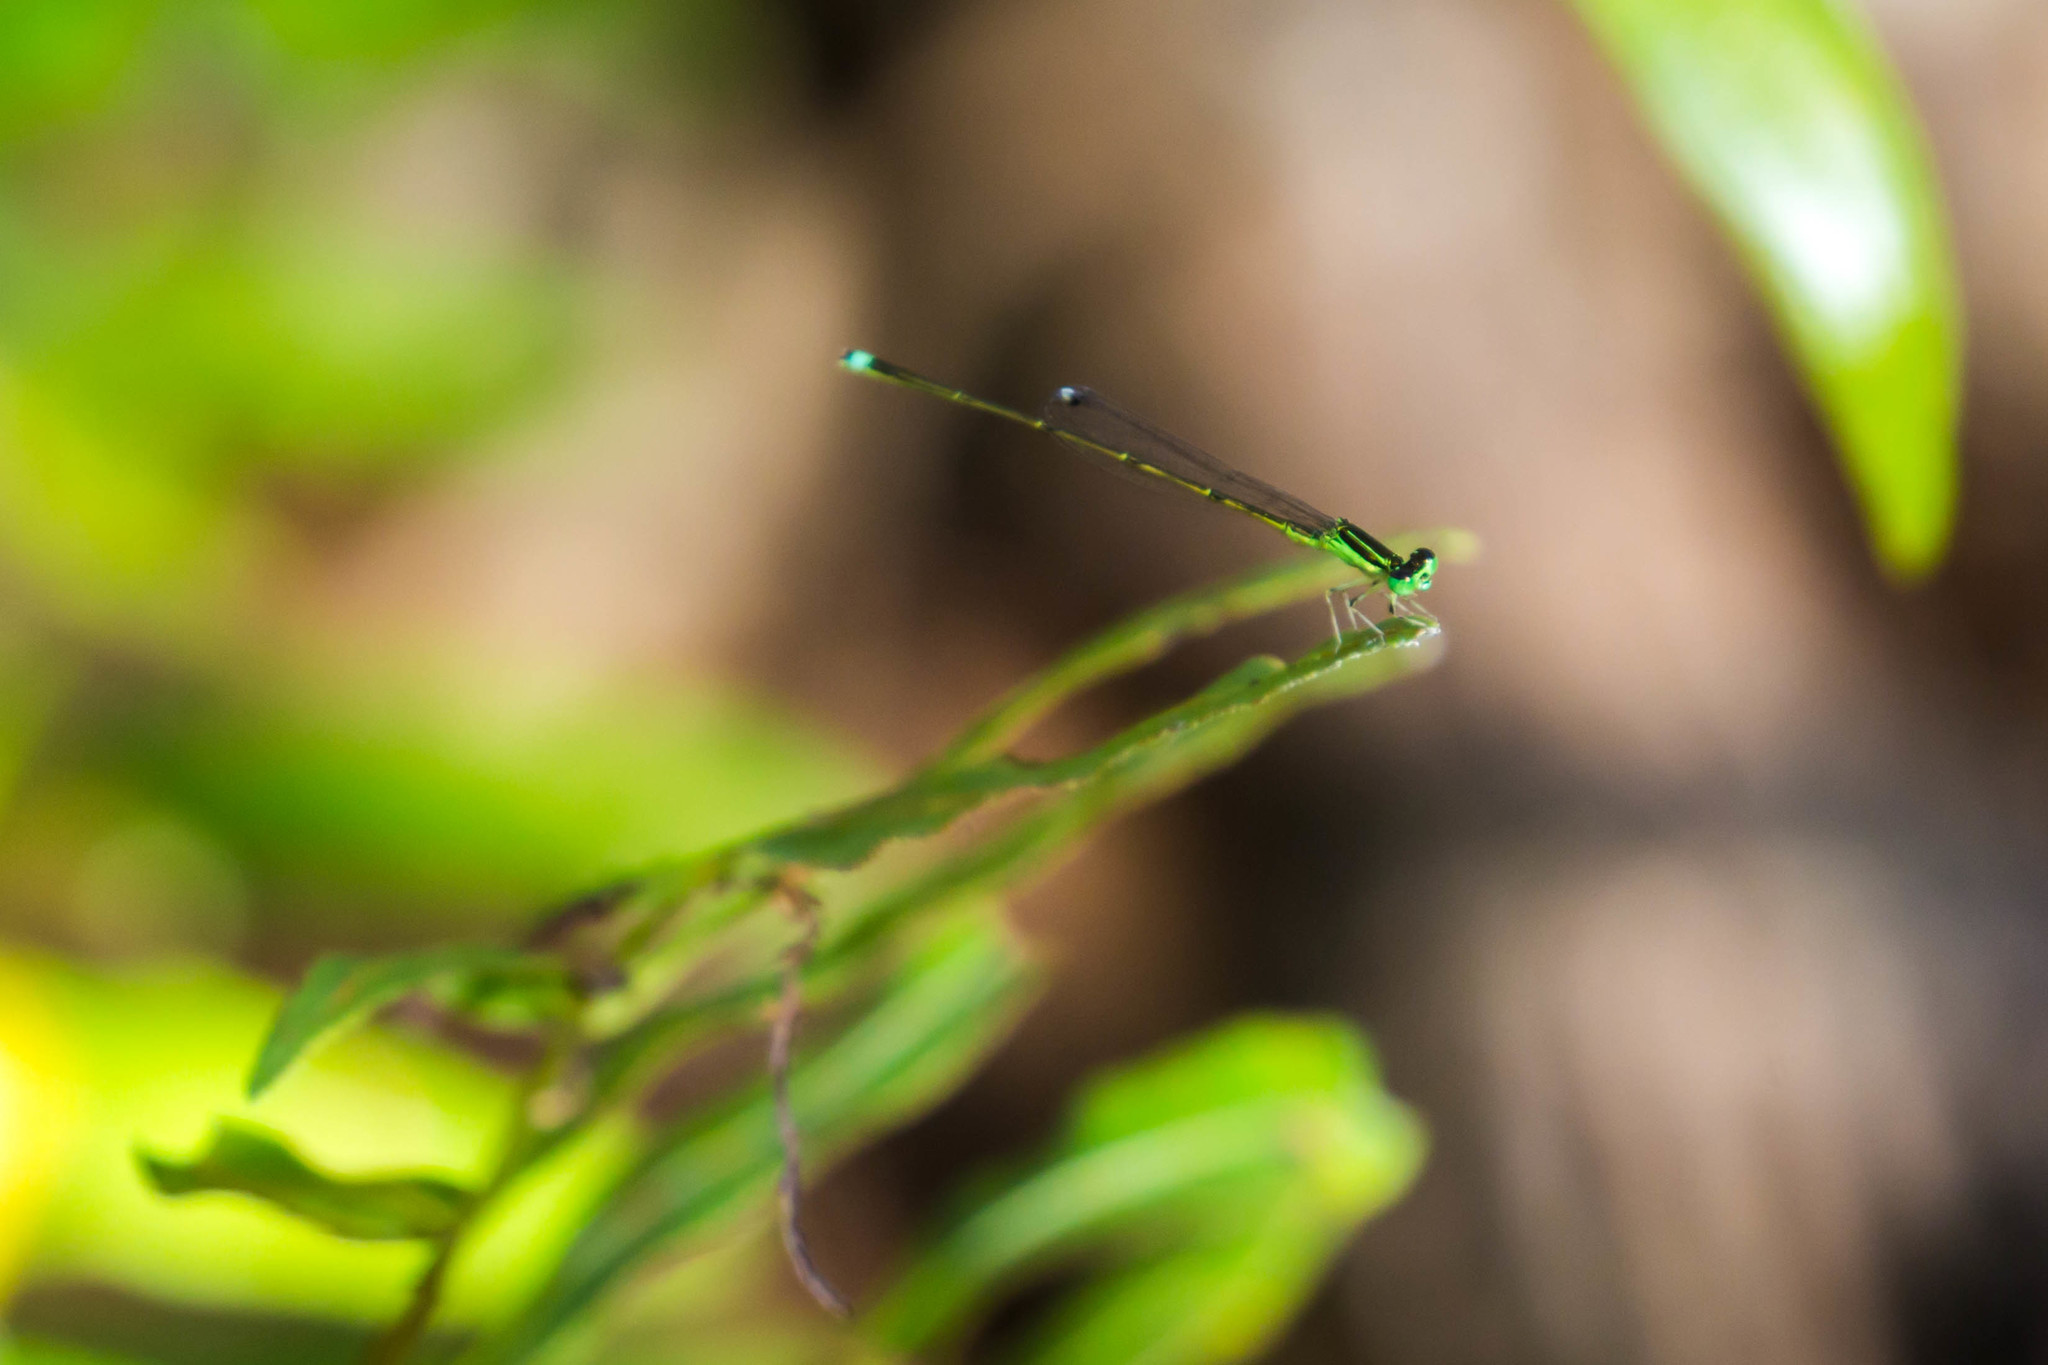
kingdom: Animalia
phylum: Arthropoda
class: Insecta
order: Odonata
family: Coenagrionidae
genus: Ischnura
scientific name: Ischnura prognata
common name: Furtive forktail
